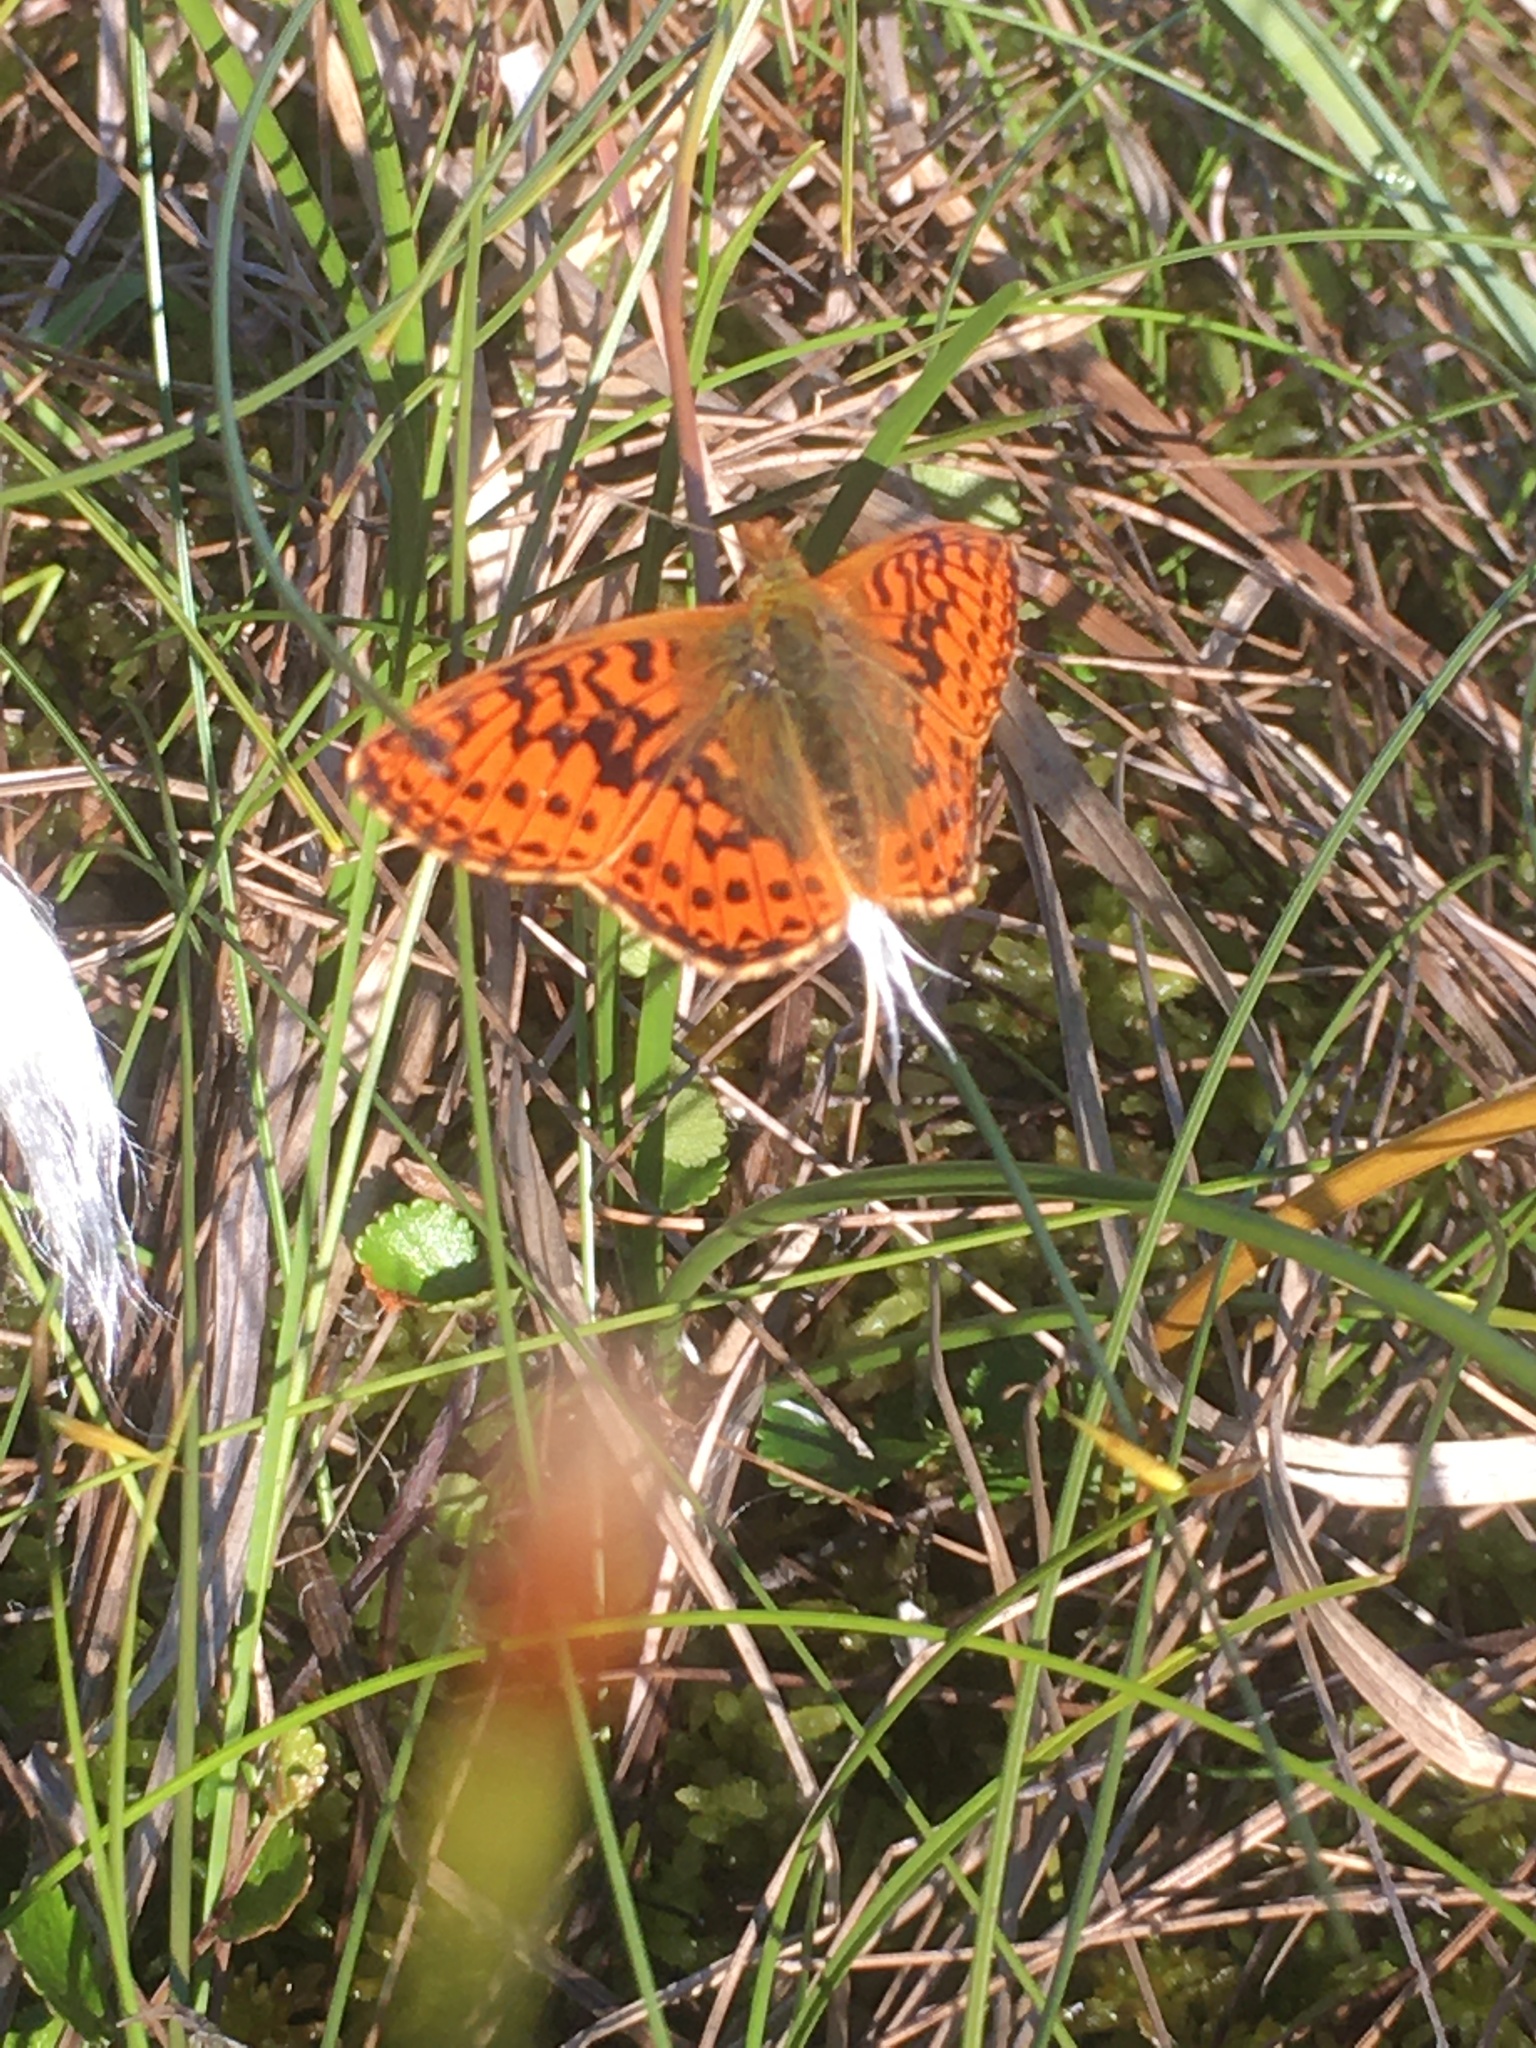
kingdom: Animalia
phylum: Arthropoda
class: Insecta
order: Lepidoptera
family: Nymphalidae
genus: Boloria
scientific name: Boloria aquilonaris
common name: Cranberry fritillary
